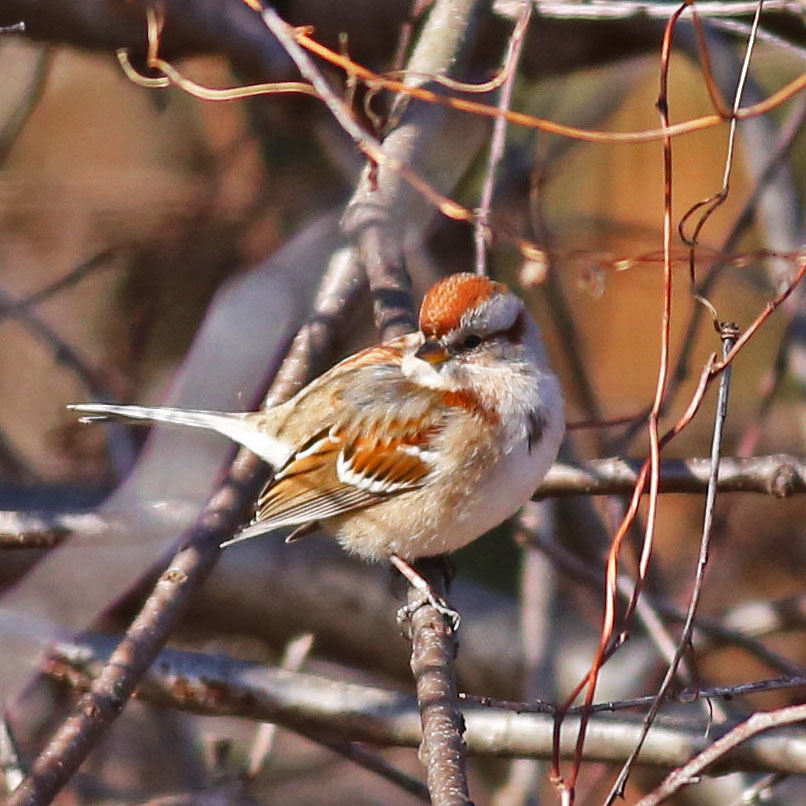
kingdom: Animalia
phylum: Chordata
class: Aves
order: Passeriformes
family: Passerellidae
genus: Spizelloides
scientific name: Spizelloides arborea
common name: American tree sparrow
